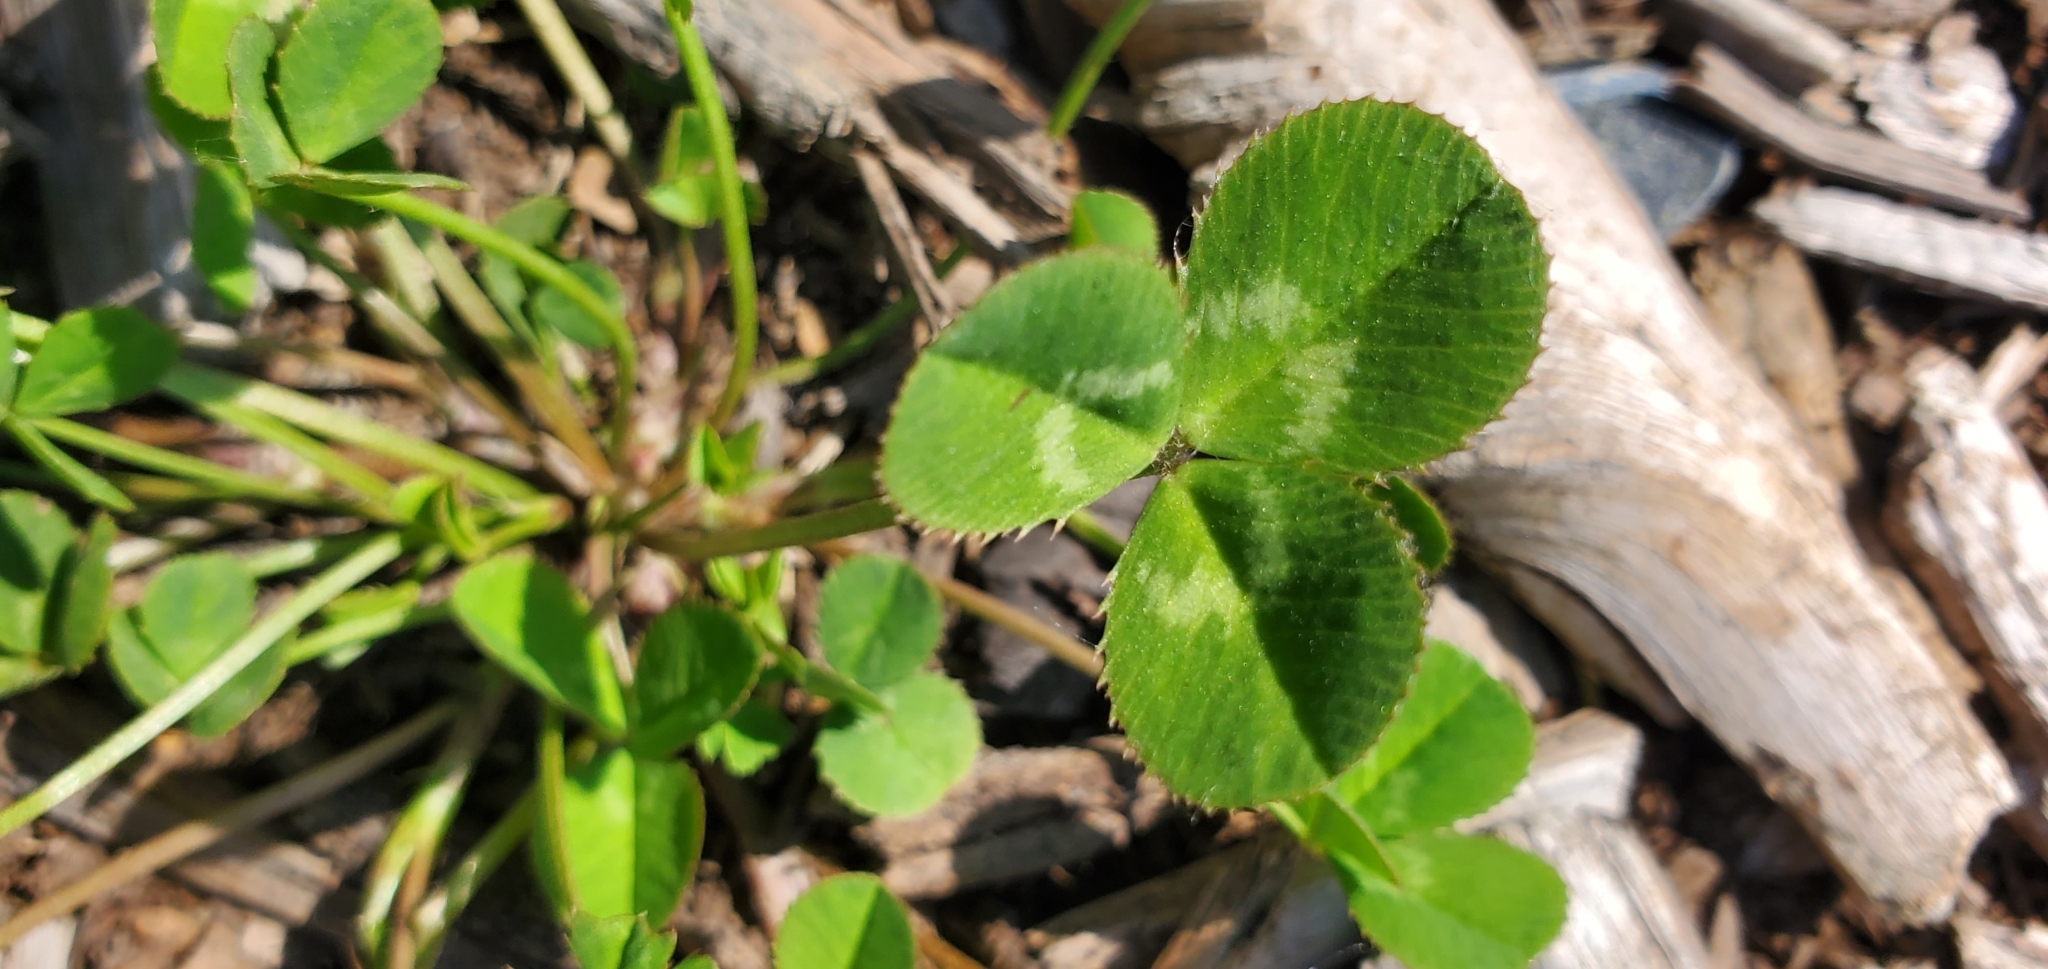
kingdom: Plantae
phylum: Tracheophyta
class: Magnoliopsida
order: Fabales
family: Fabaceae
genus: Trifolium
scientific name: Trifolium repens
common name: White clover
